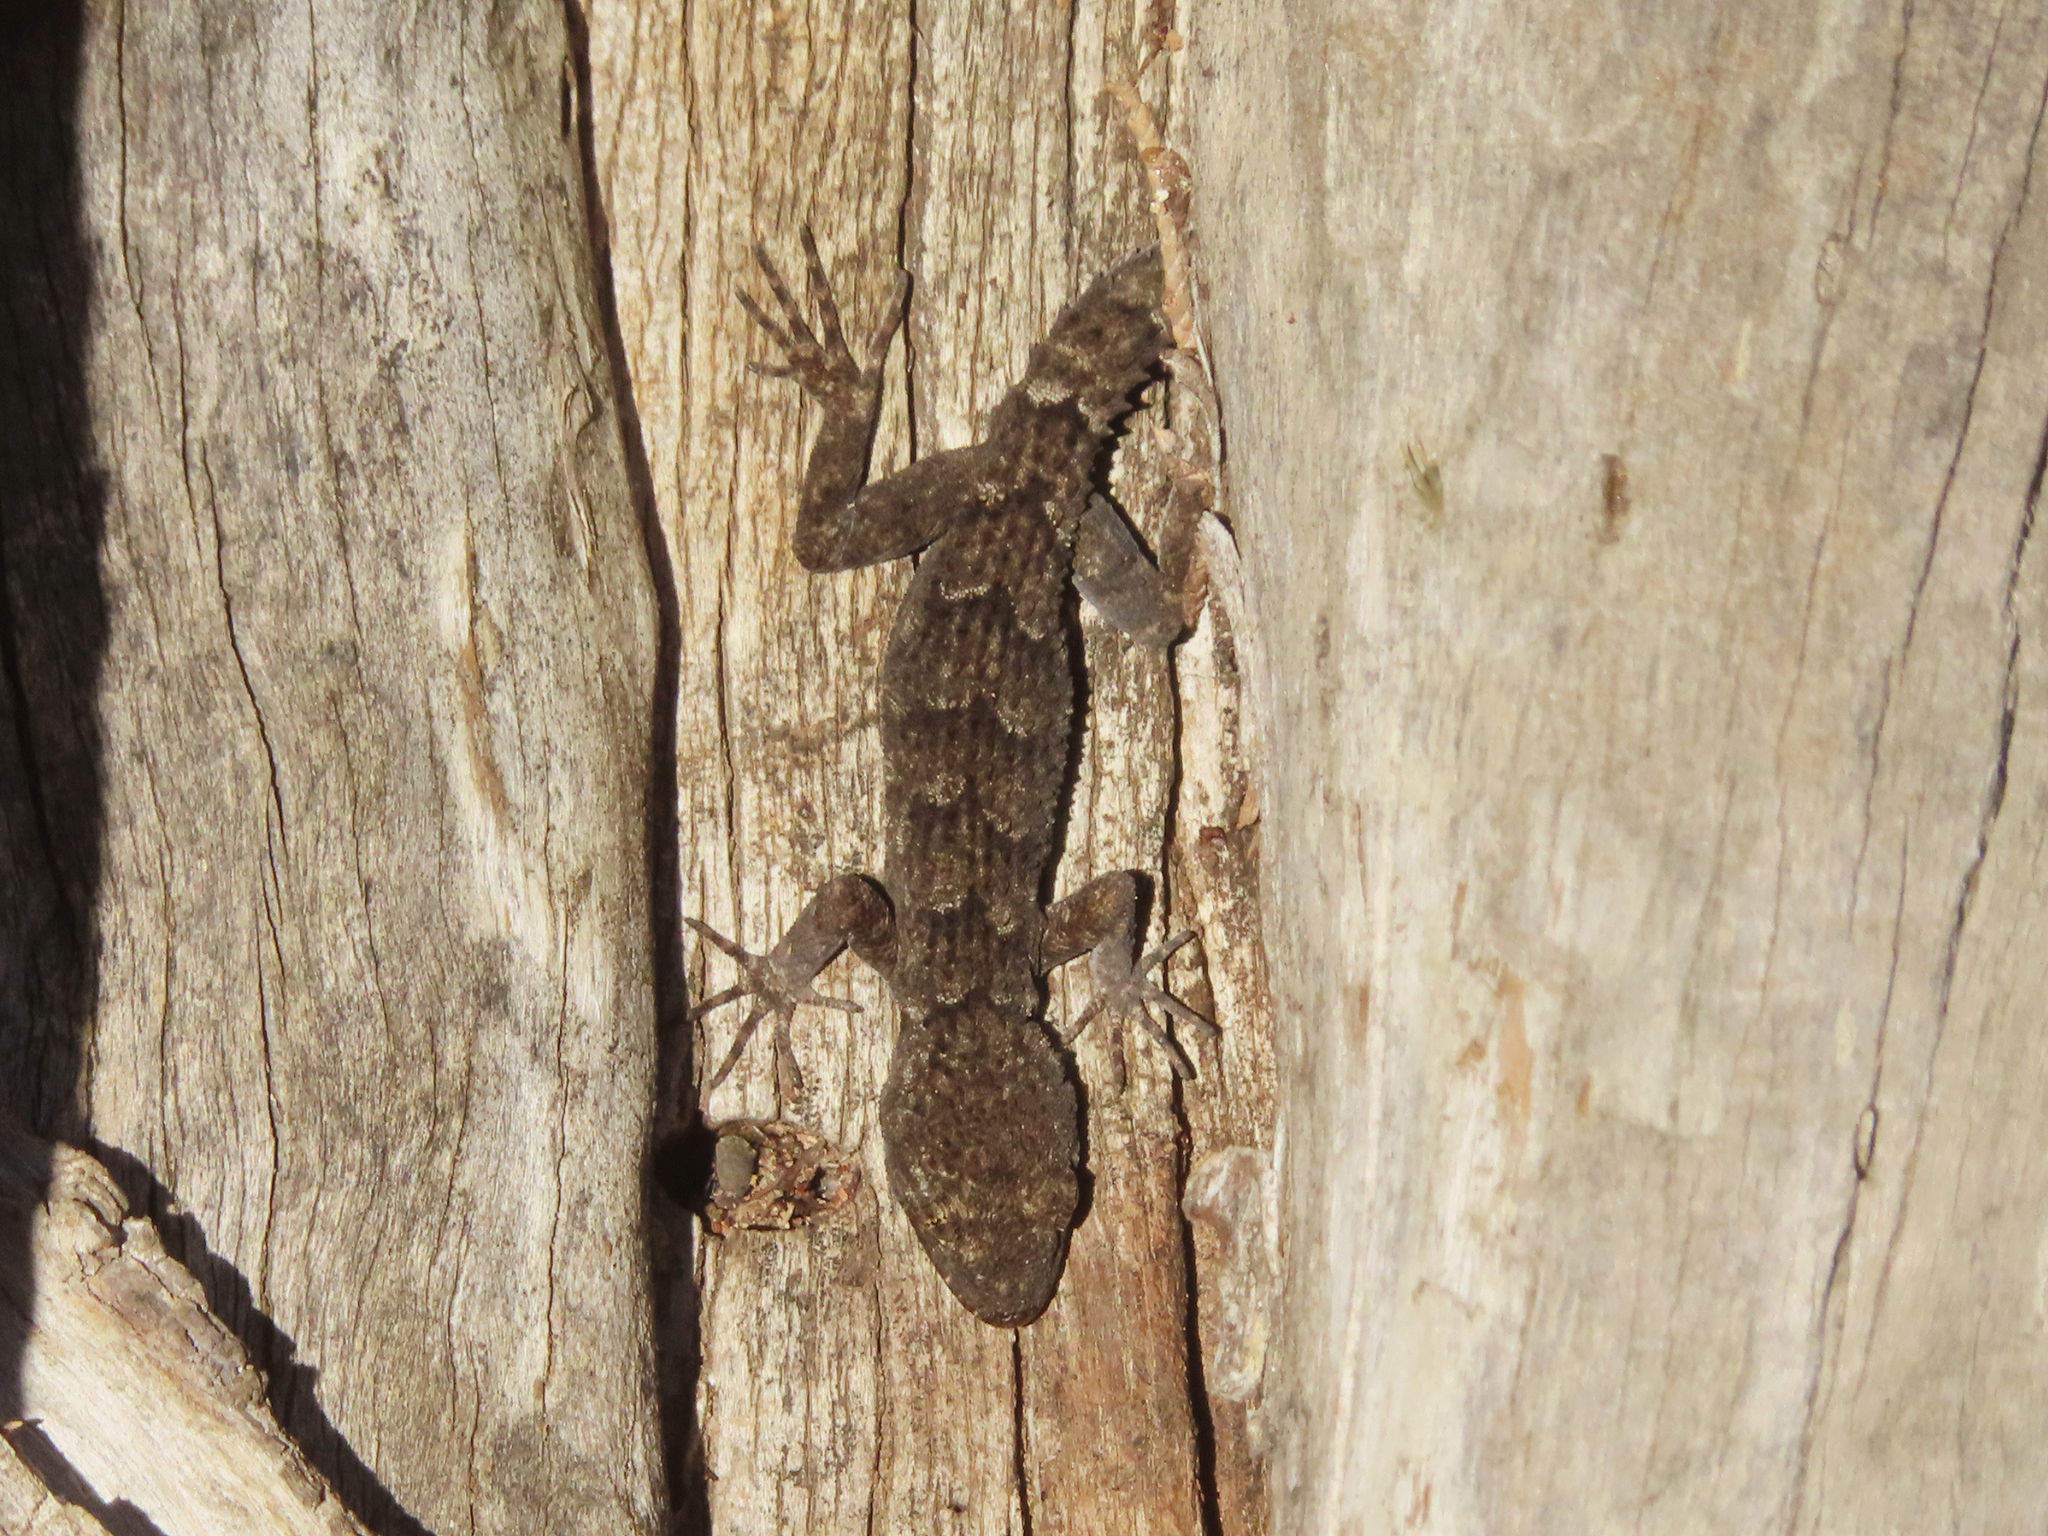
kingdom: Animalia
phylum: Chordata
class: Squamata
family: Gekkonidae
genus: Mediodactylus
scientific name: Mediodactylus kotschyi
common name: Kotschy's gecko
